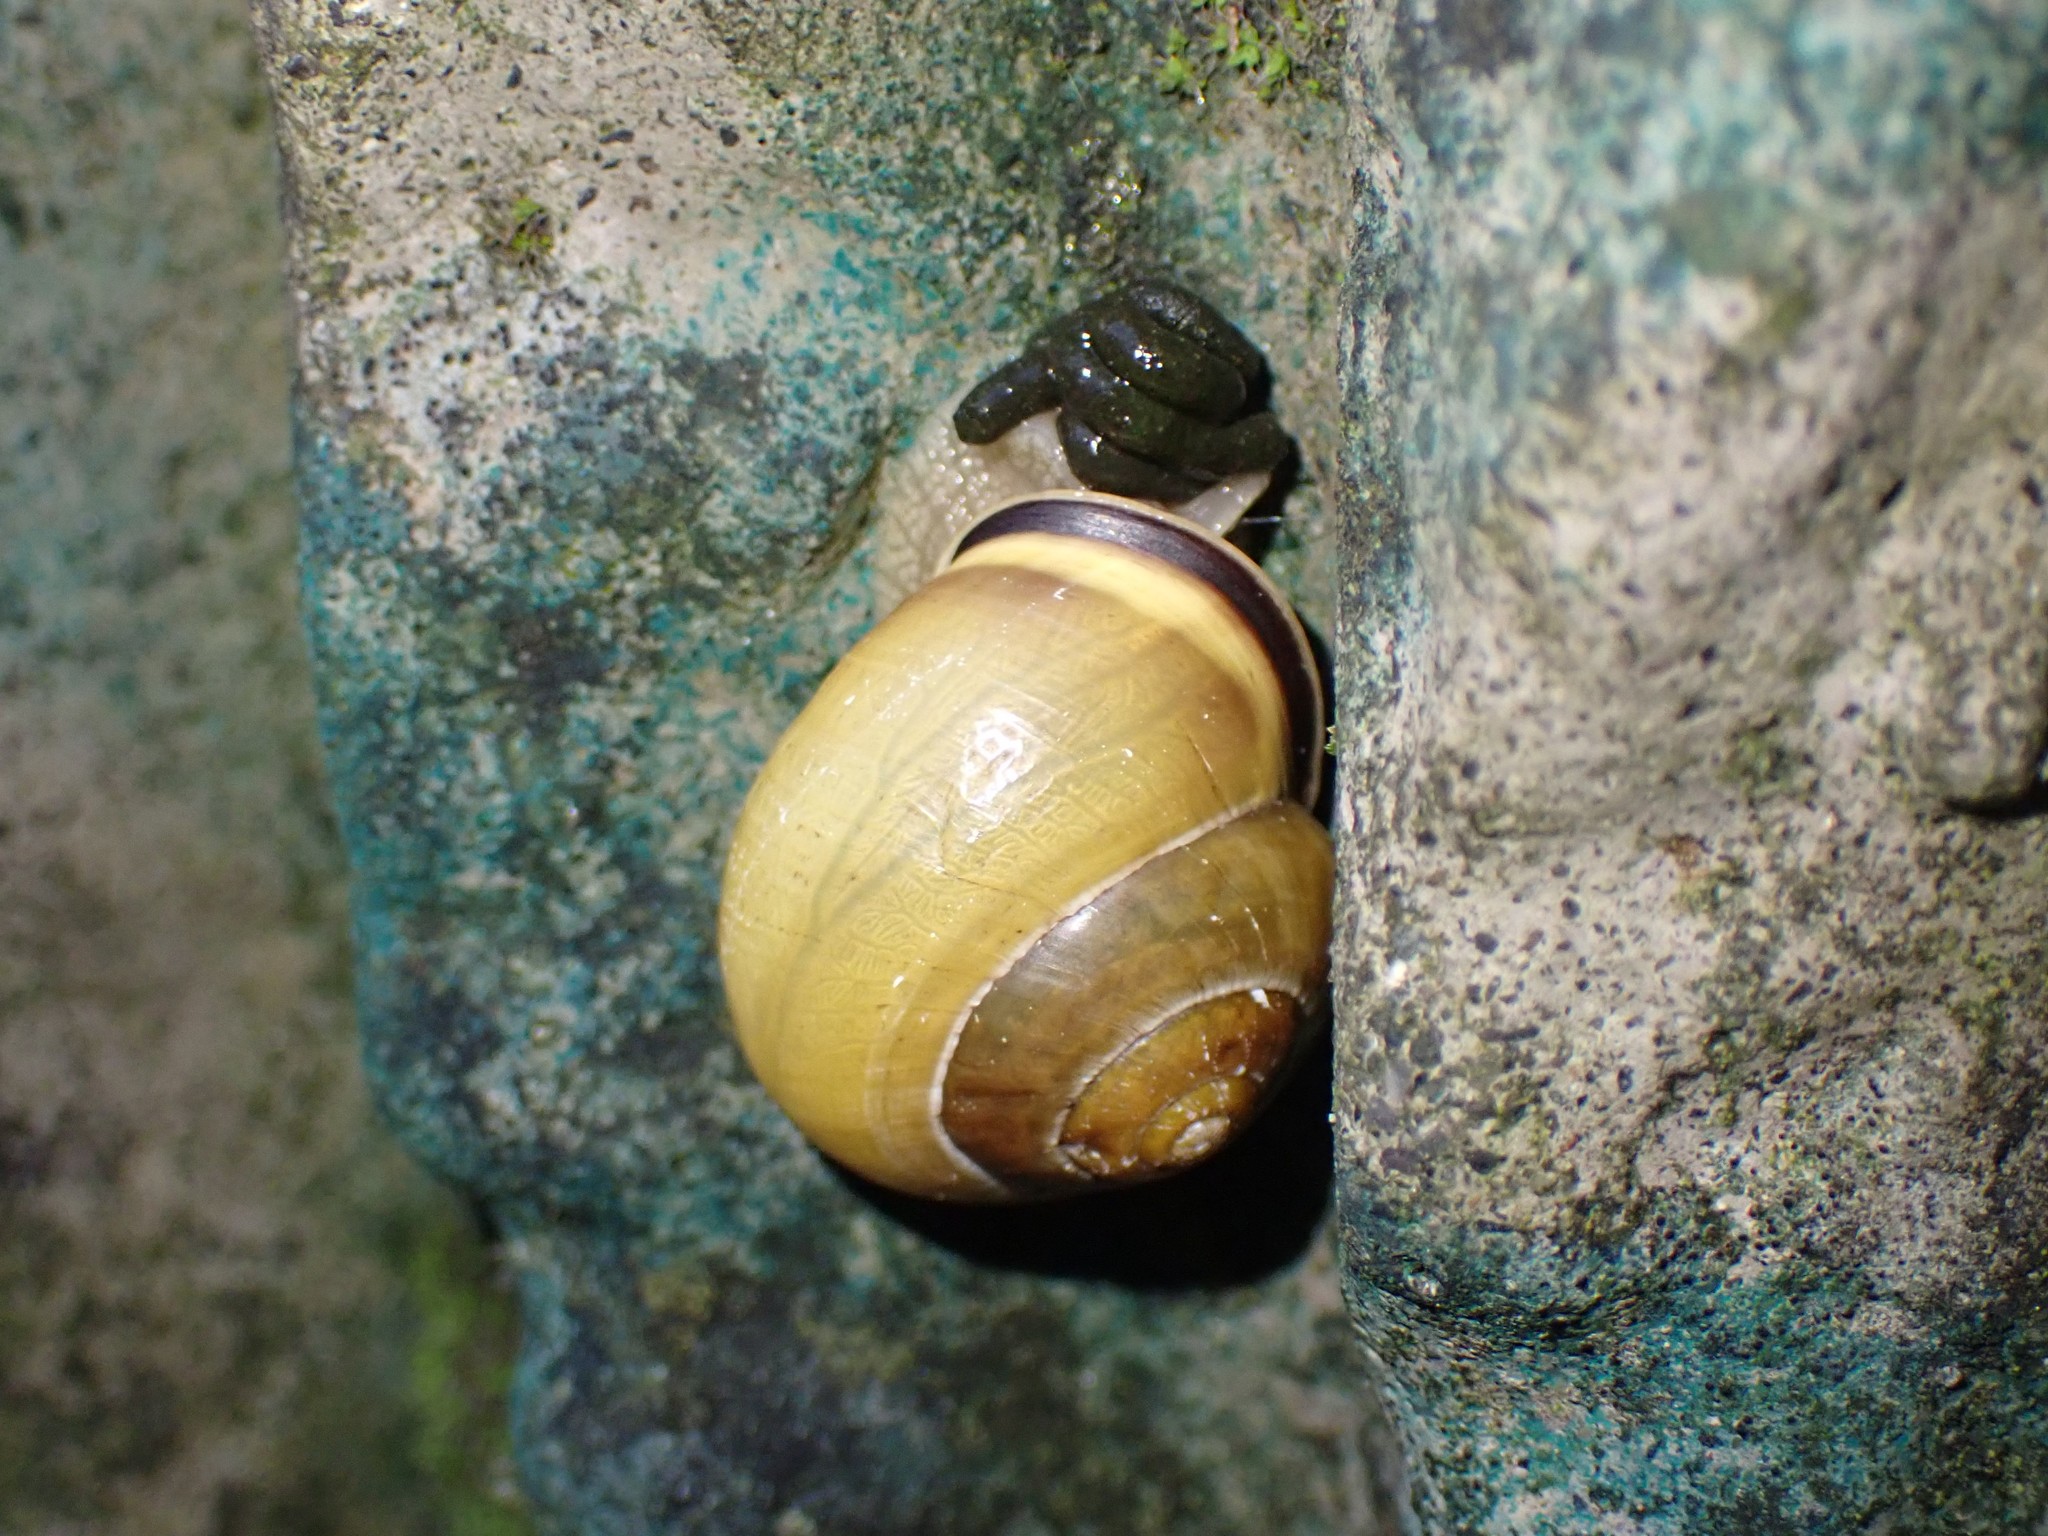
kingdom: Animalia
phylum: Mollusca
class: Gastropoda
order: Stylommatophora
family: Helicidae
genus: Cepaea
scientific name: Cepaea nemoralis
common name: Grovesnail
